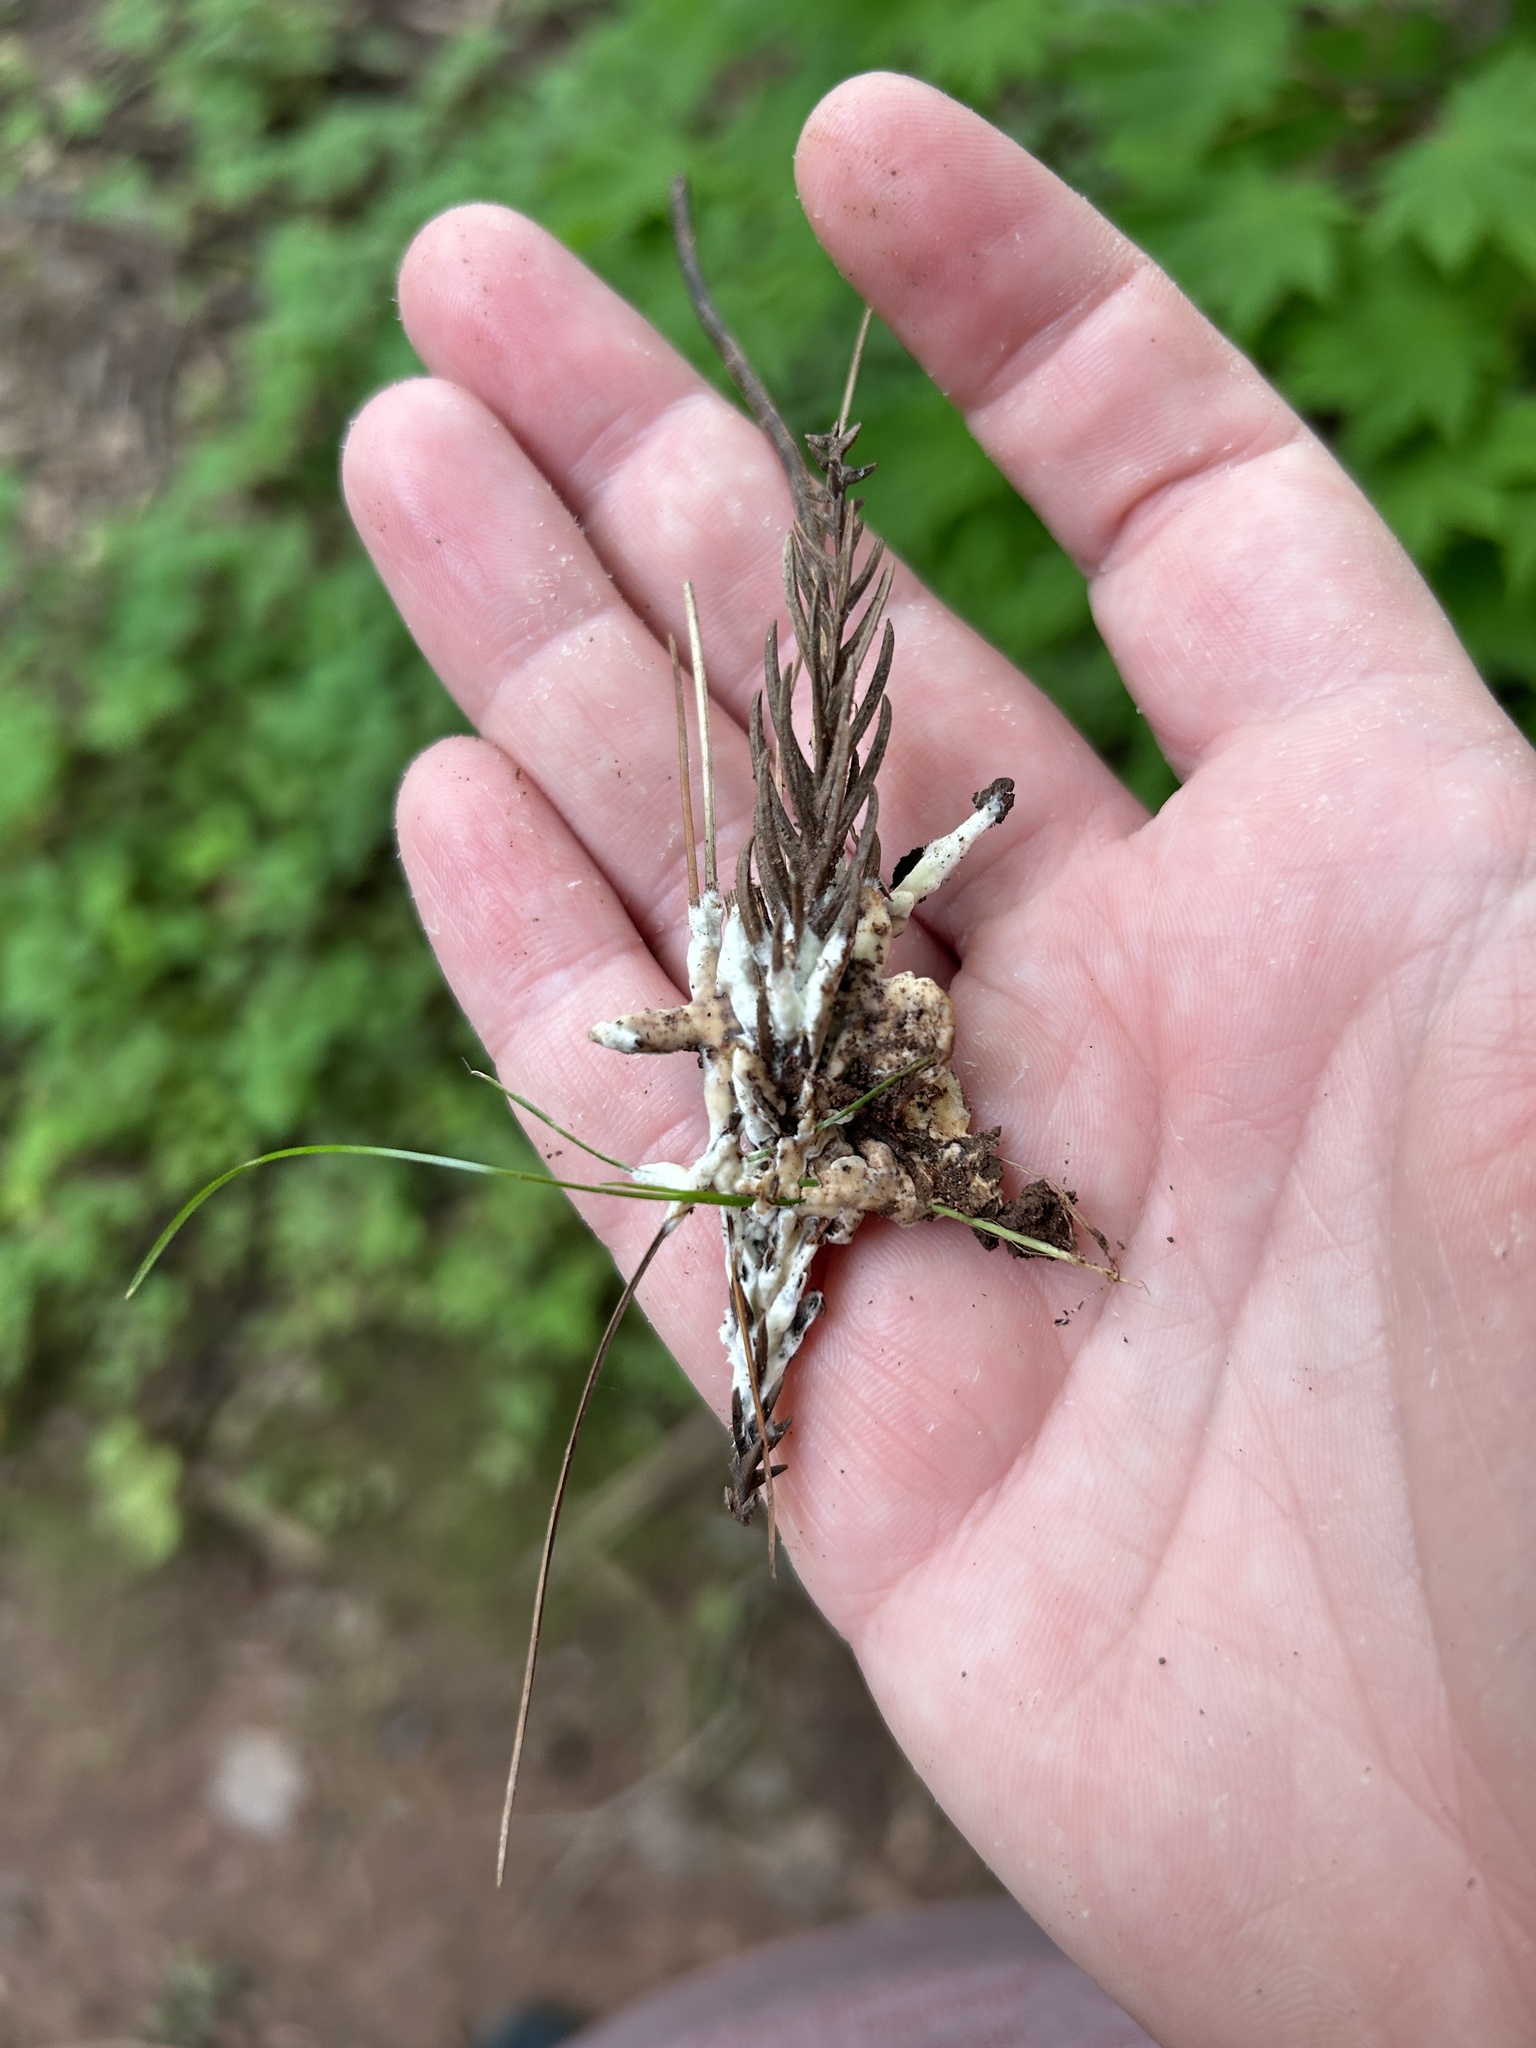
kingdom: Fungi
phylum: Basidiomycota
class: Agaricomycetes
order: Sebacinales
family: Sebacinaceae
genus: Sebacina
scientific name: Sebacina incrustans
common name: Enveloping crust
